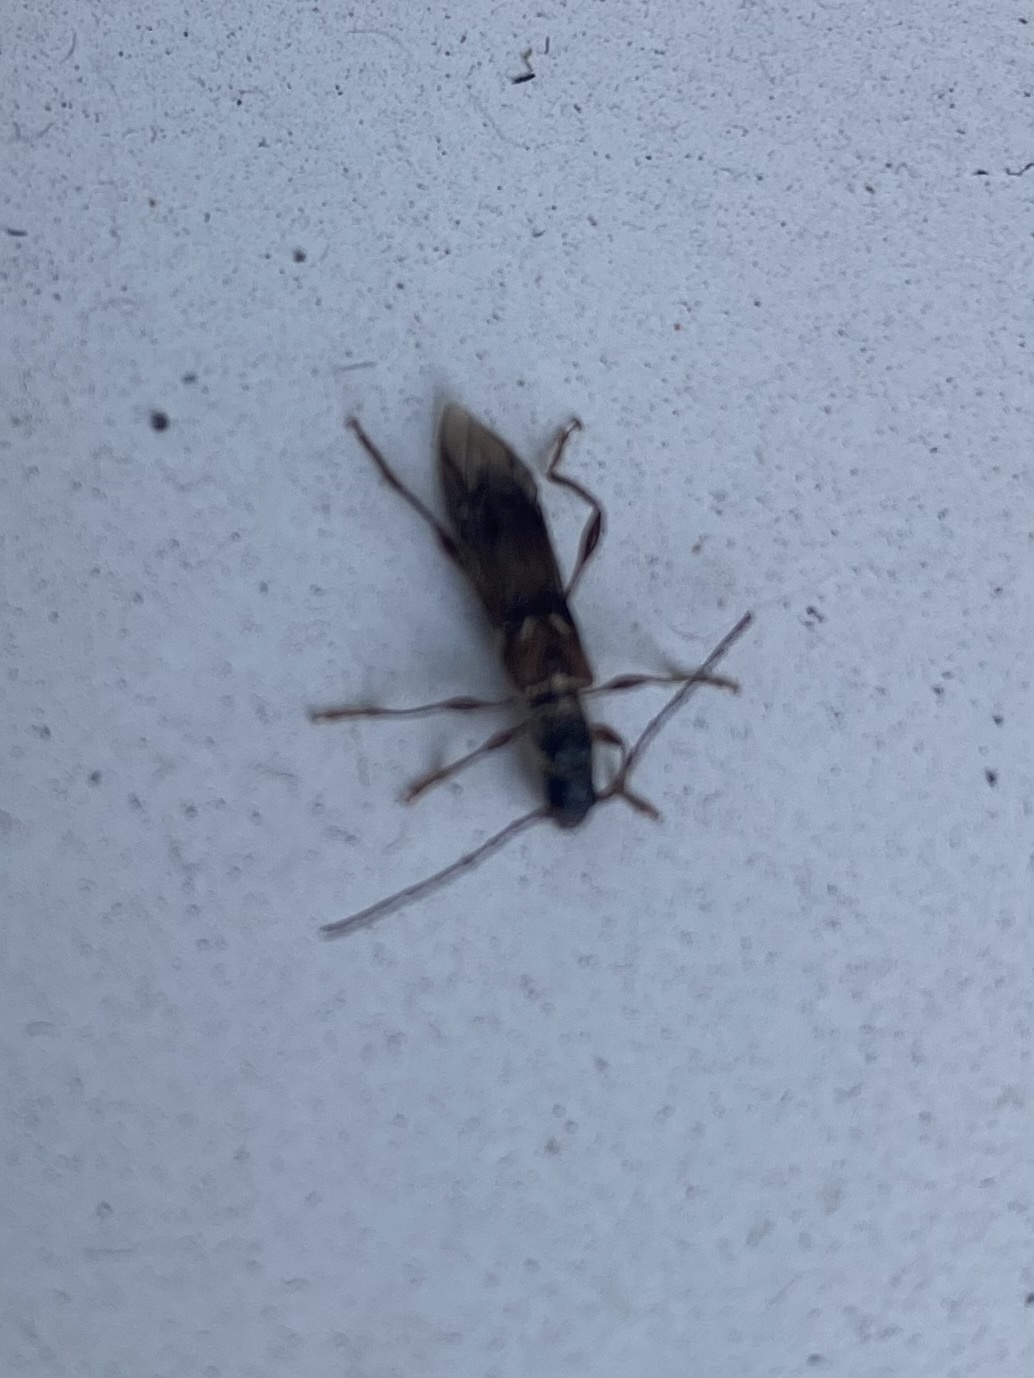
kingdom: Animalia
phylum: Arthropoda
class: Insecta
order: Coleoptera
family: Cerambycidae
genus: Molorchus
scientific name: Molorchus minor
